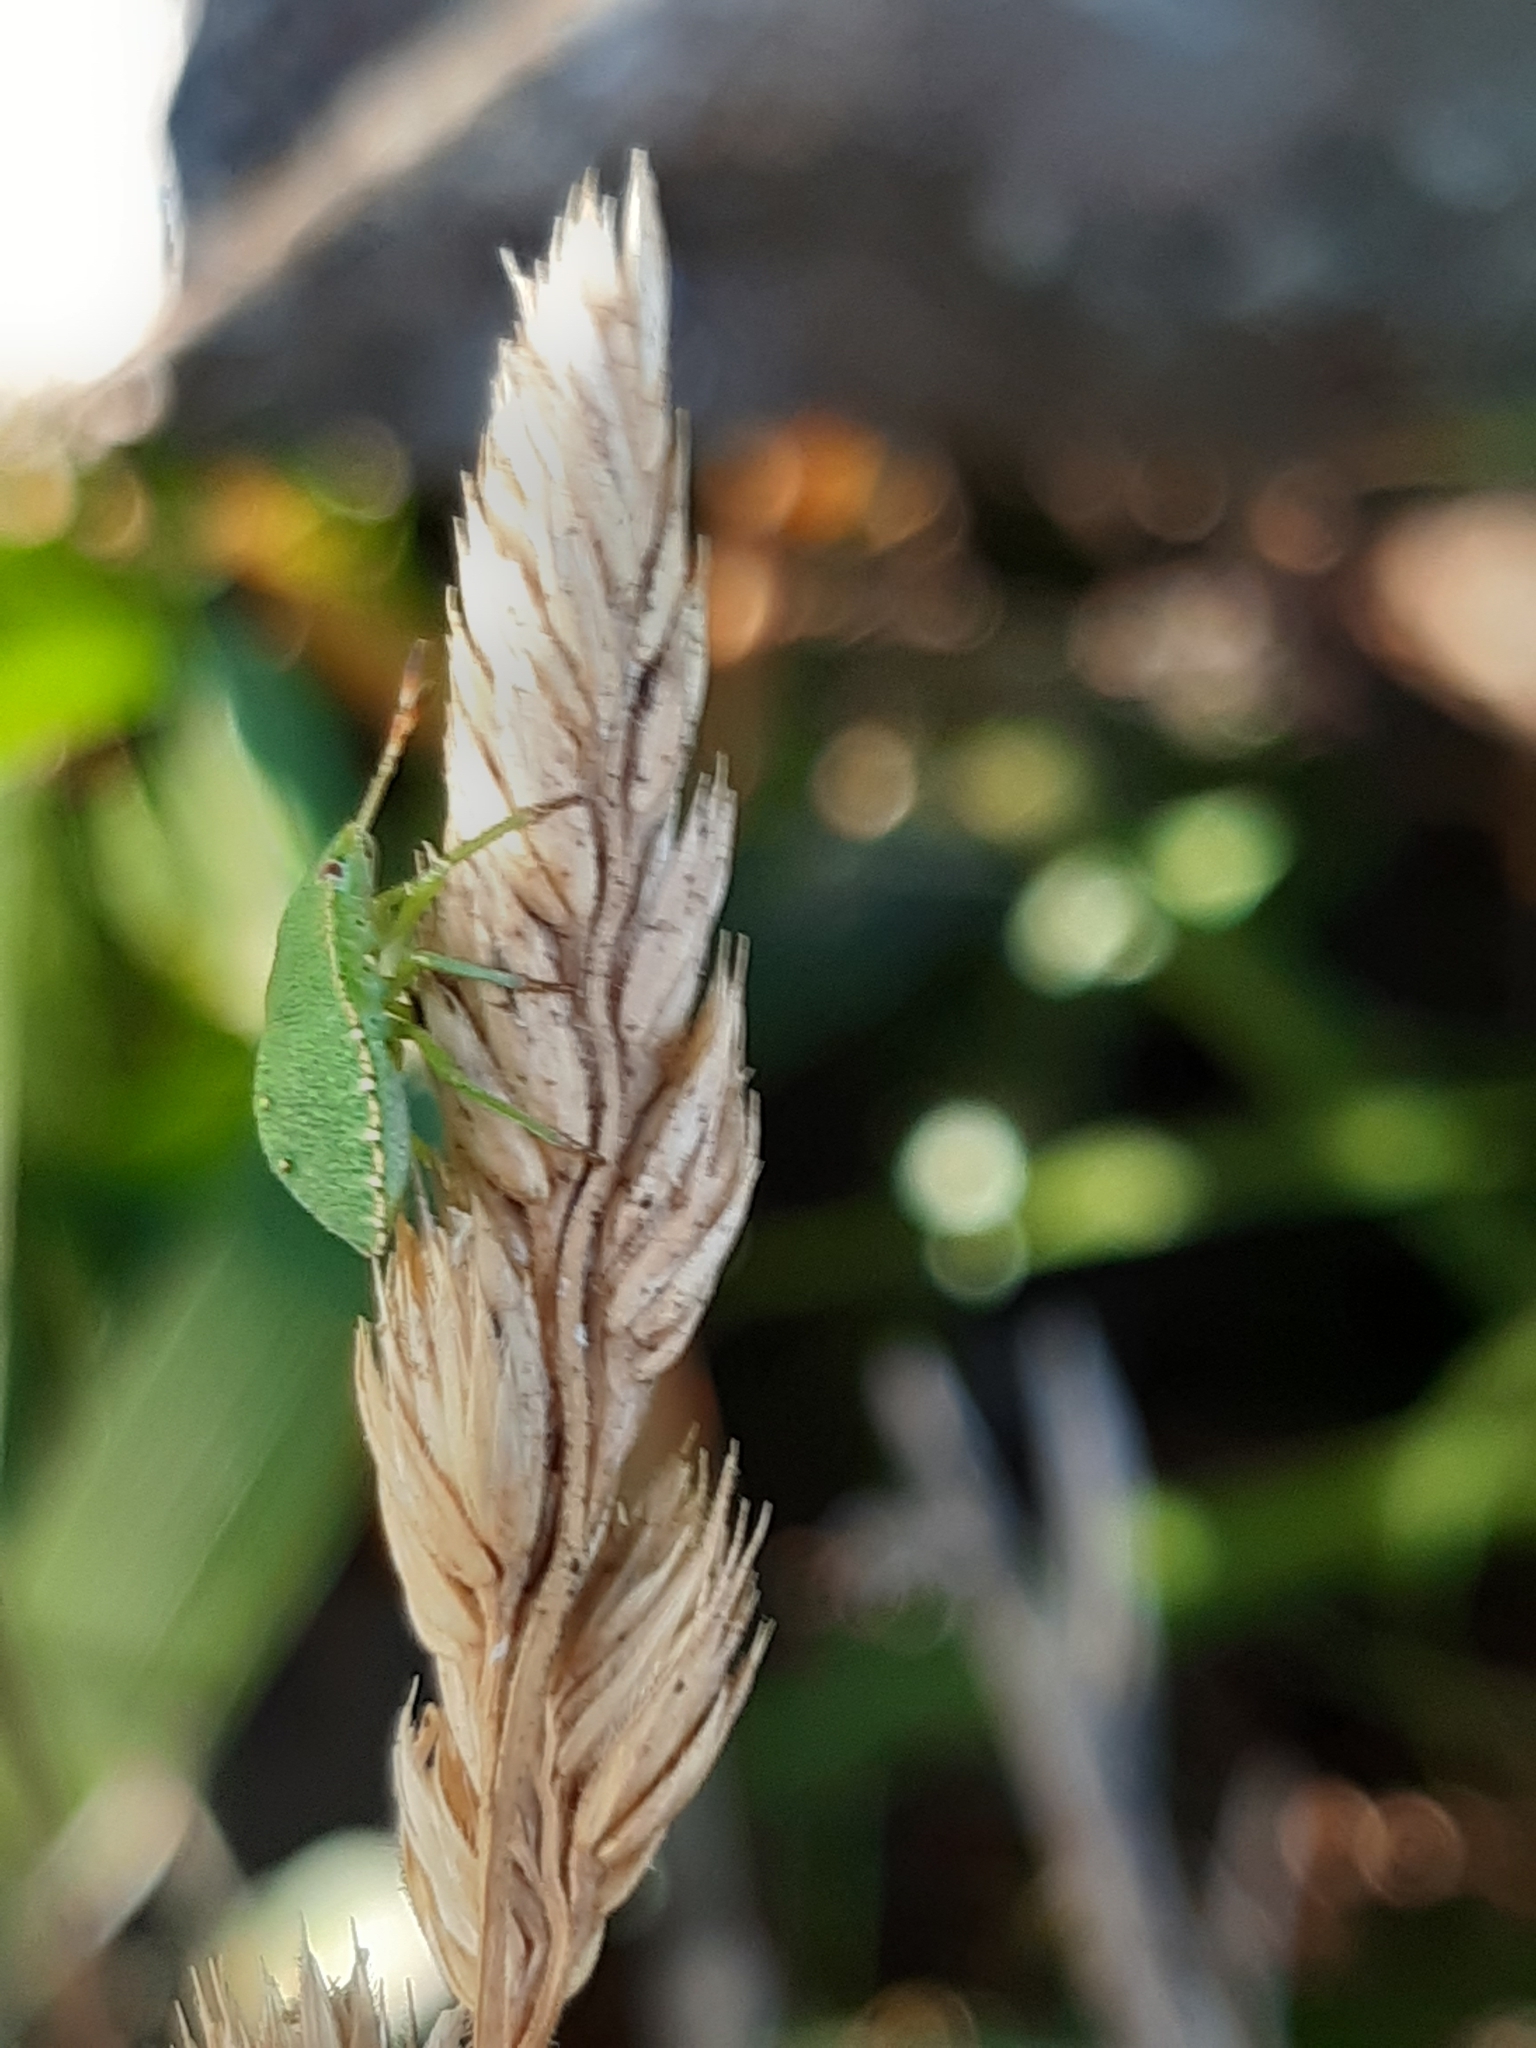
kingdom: Animalia
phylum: Arthropoda
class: Insecta
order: Hemiptera
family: Pentatomidae
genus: Palomena
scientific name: Palomena prasina
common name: Green shieldbug
